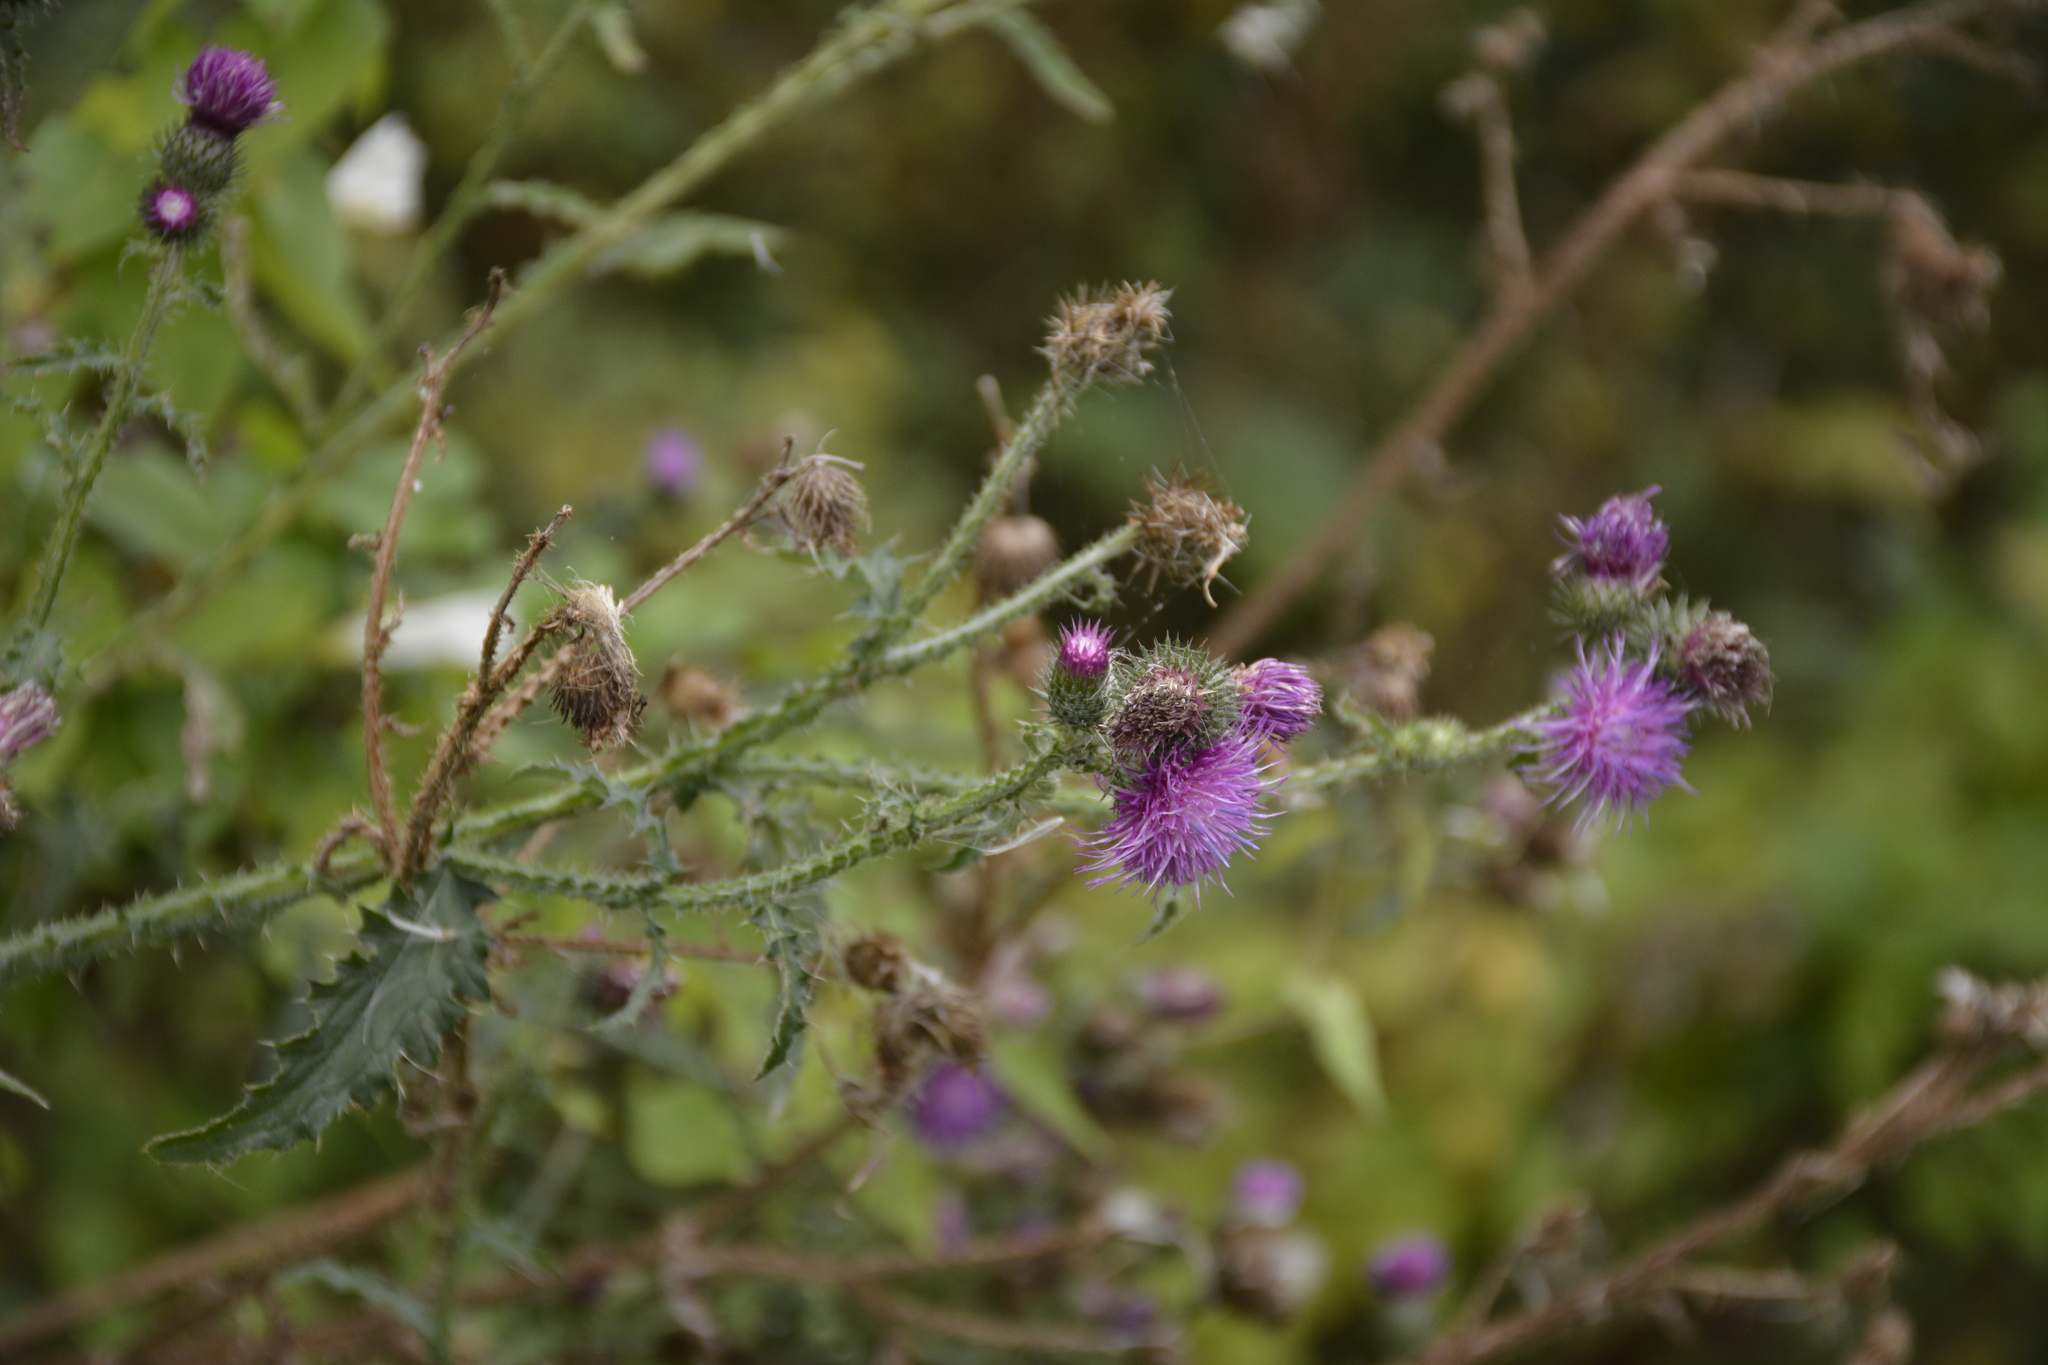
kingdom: Plantae
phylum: Tracheophyta
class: Magnoliopsida
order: Asterales
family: Asteraceae
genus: Carduus
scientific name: Carduus crispus
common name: Welted thistle
